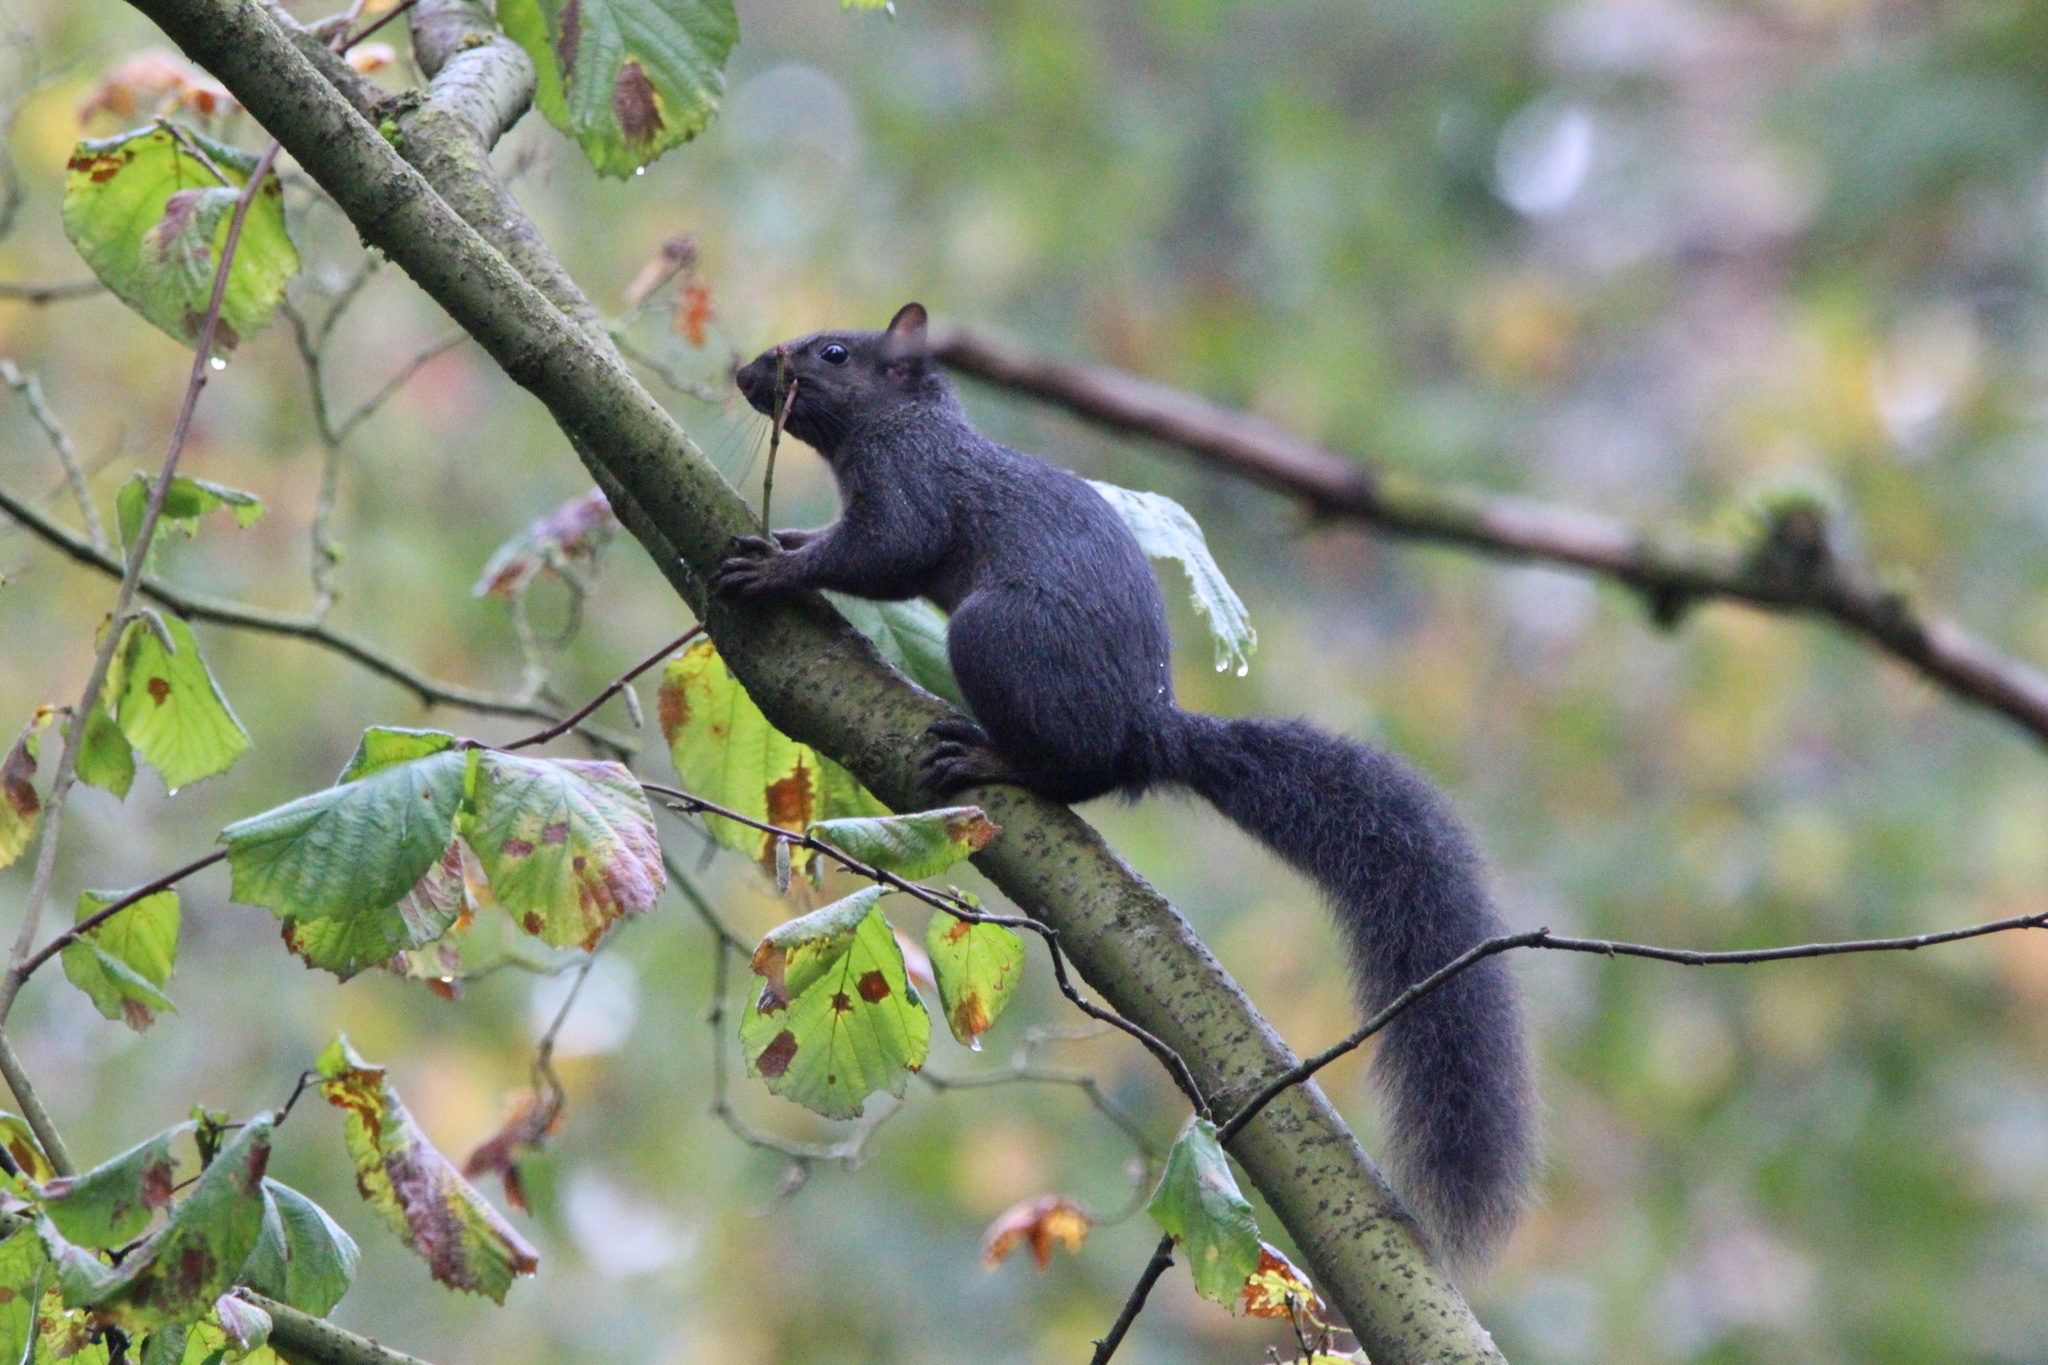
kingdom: Animalia
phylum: Chordata
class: Mammalia
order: Rodentia
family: Sciuridae
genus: Sciurus
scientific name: Sciurus carolinensis
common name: Eastern gray squirrel
